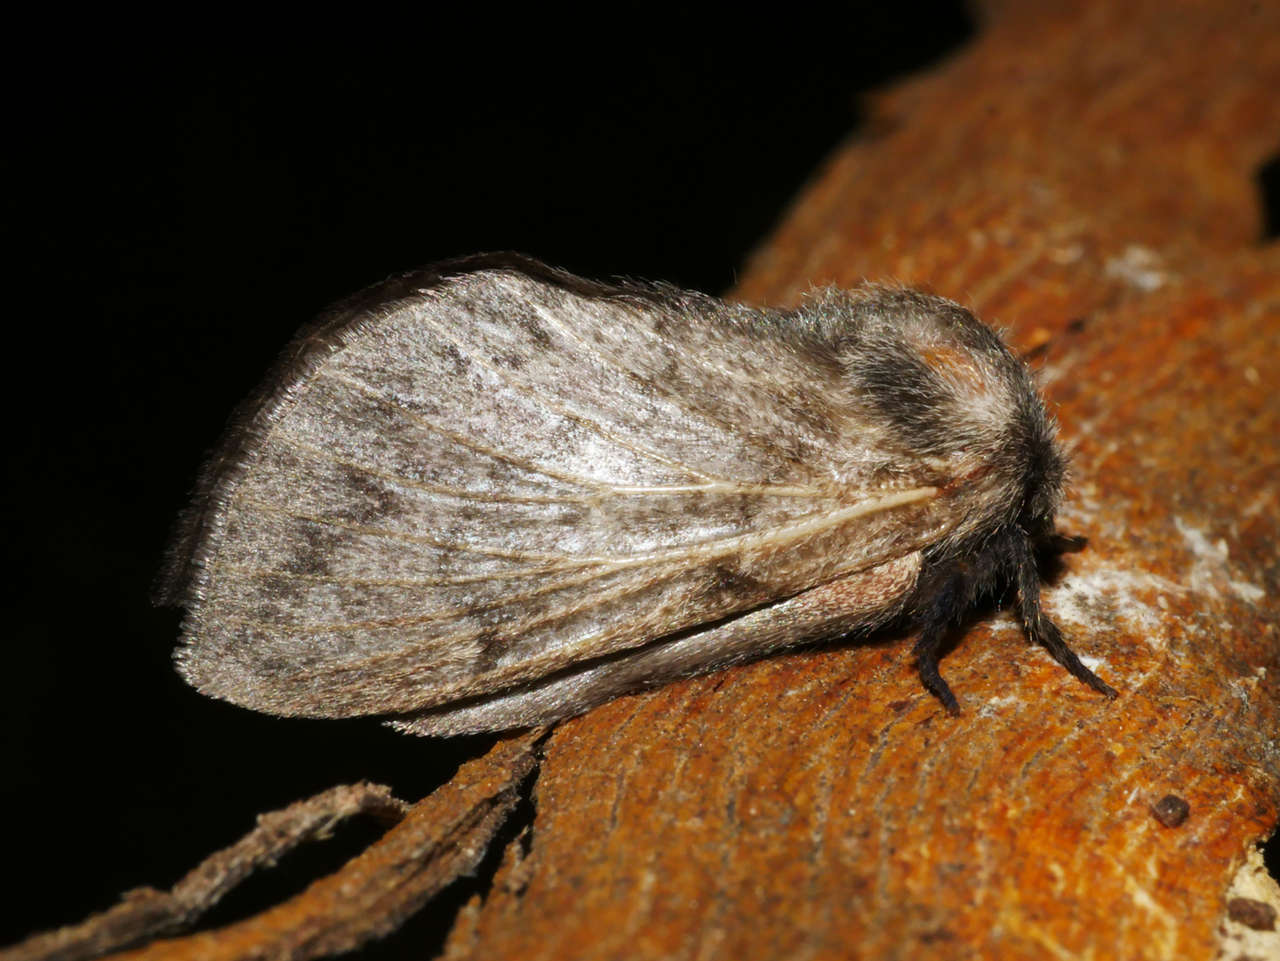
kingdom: Animalia
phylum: Arthropoda
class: Insecta
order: Lepidoptera
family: Lasiocampidae
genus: Pernattia
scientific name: Pernattia pusilla
